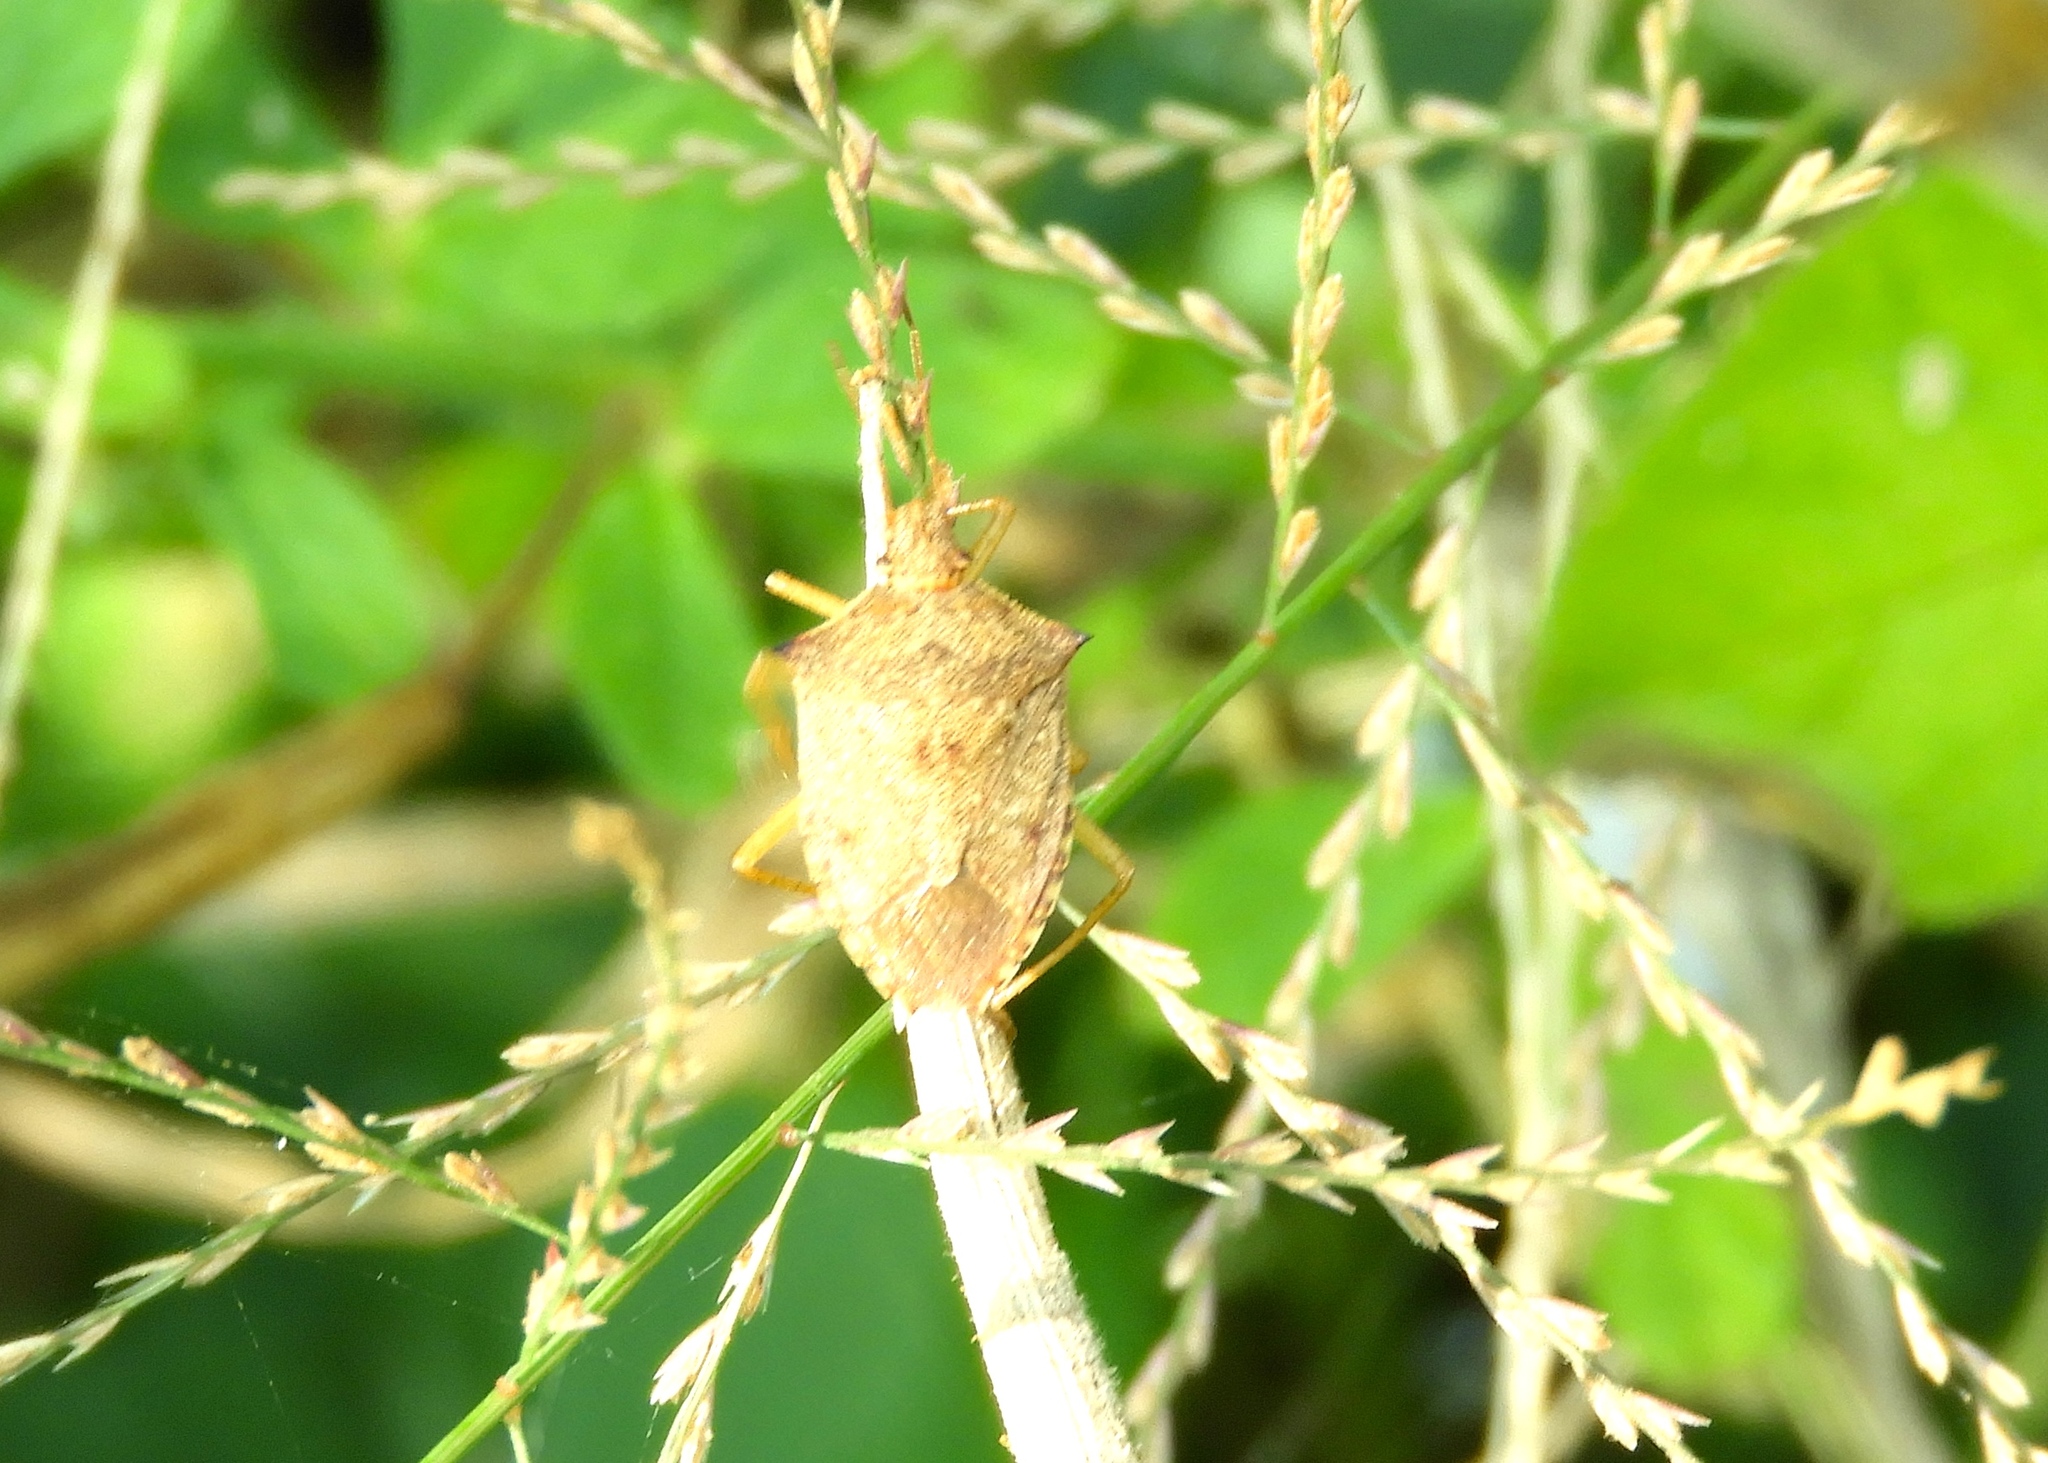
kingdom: Animalia
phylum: Arthropoda
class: Insecta
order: Hemiptera
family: Pentatomidae
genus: Euschistus
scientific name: Euschistus
